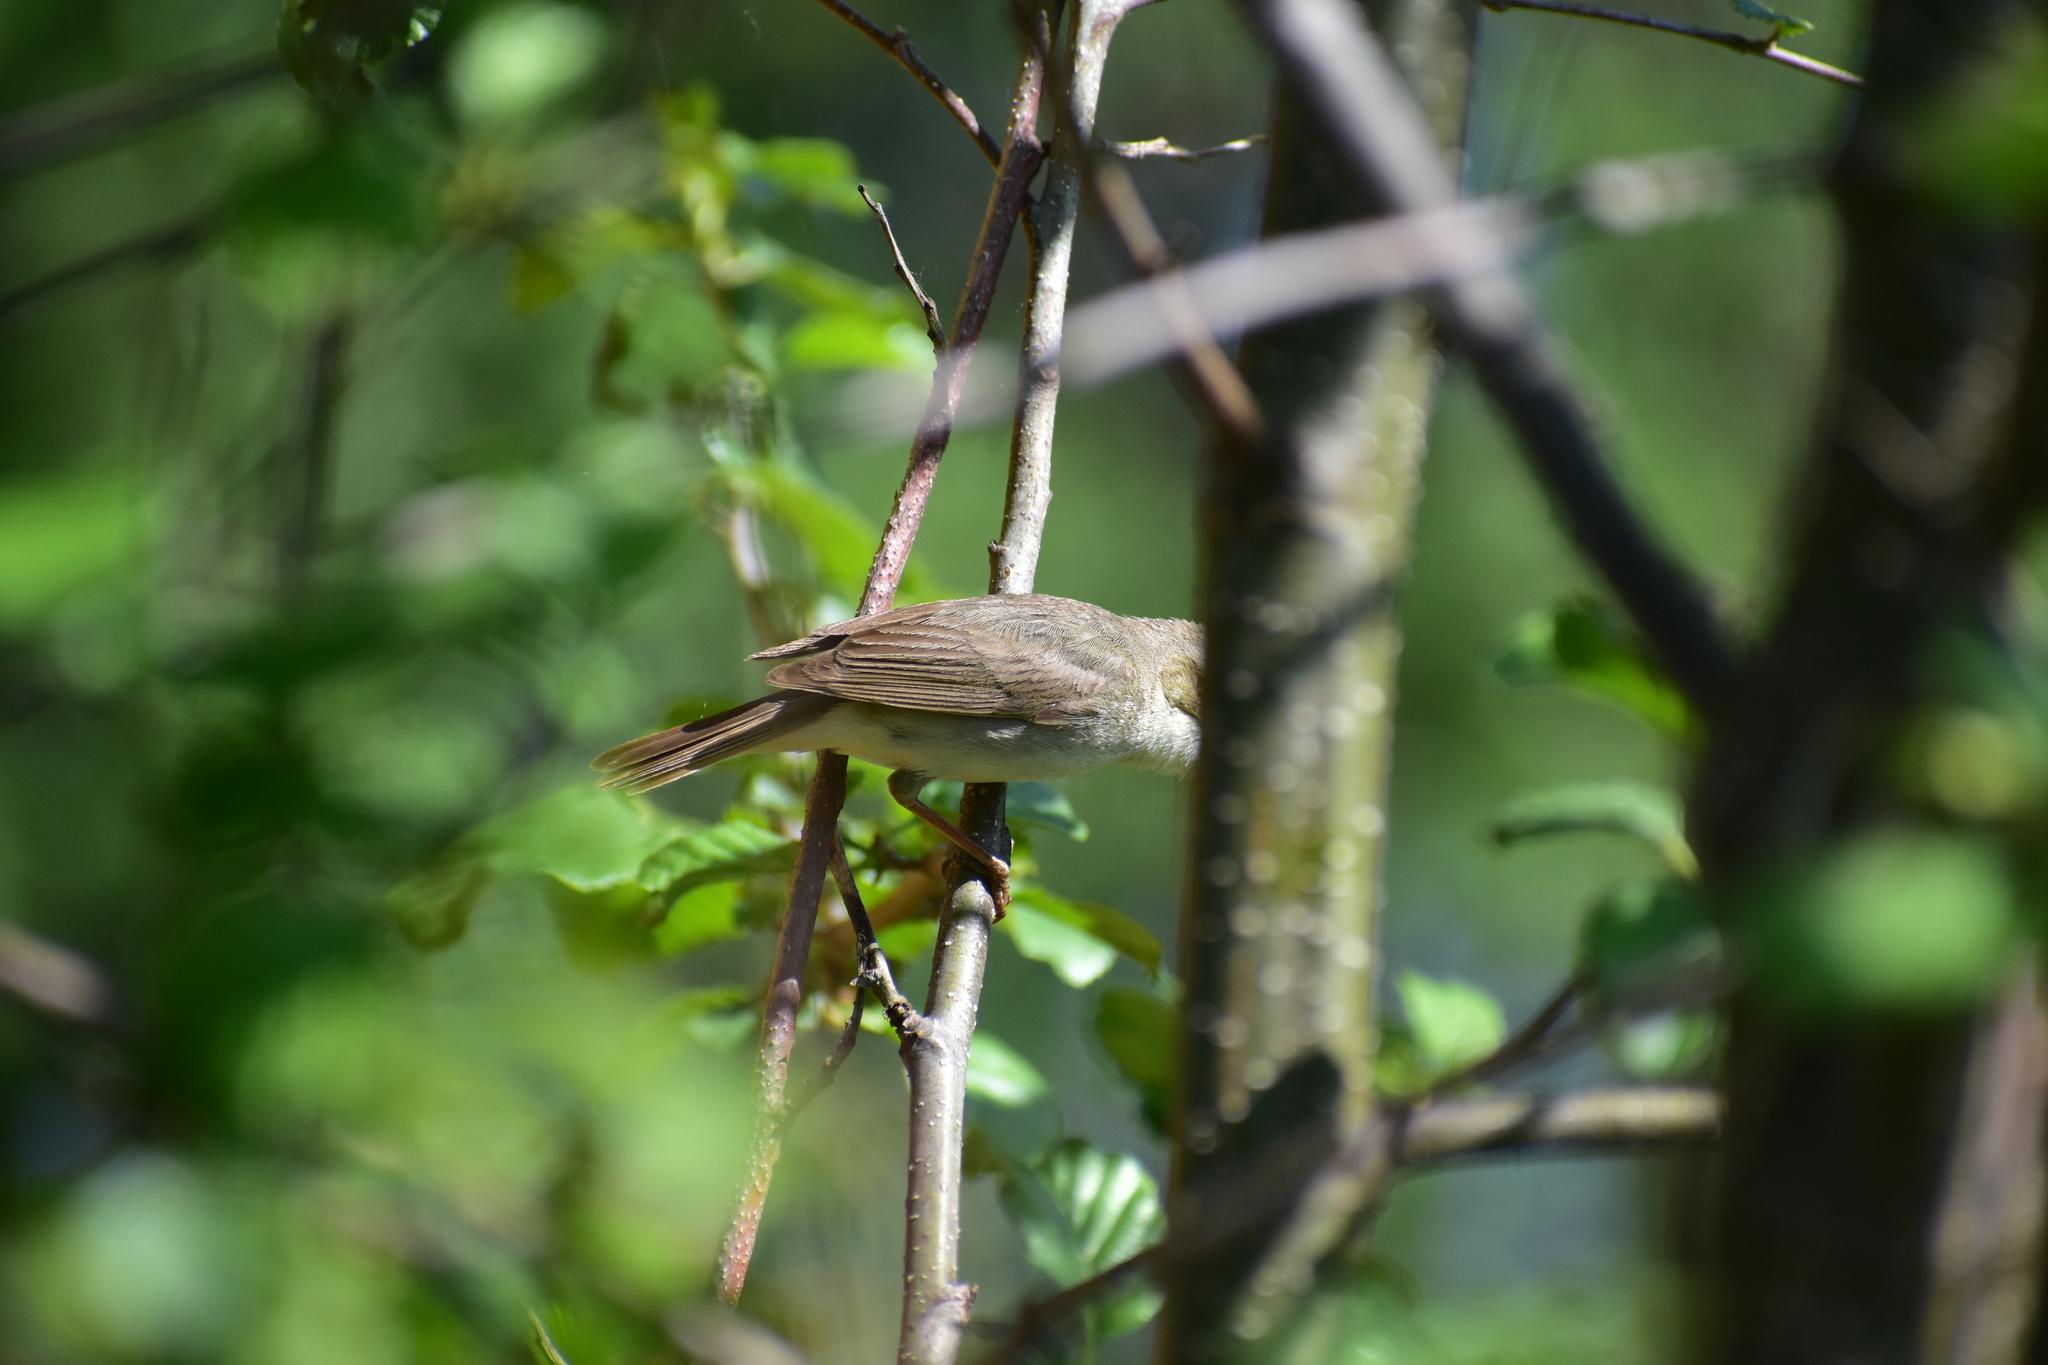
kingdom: Animalia
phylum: Chordata
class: Aves
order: Passeriformes
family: Acrocephalidae
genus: Acrocephalus
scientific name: Acrocephalus dumetorum
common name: Blyth's reed warbler
